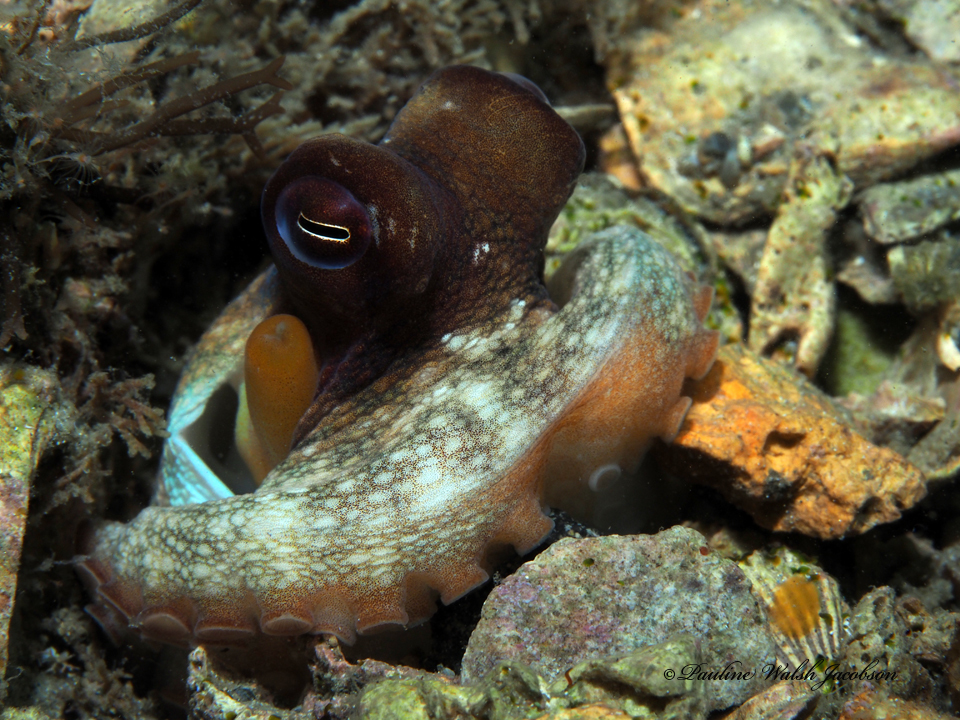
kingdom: Animalia
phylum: Mollusca
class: Cephalopoda
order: Octopoda
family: Octopodidae
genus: Octopus
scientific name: Octopus americanus
